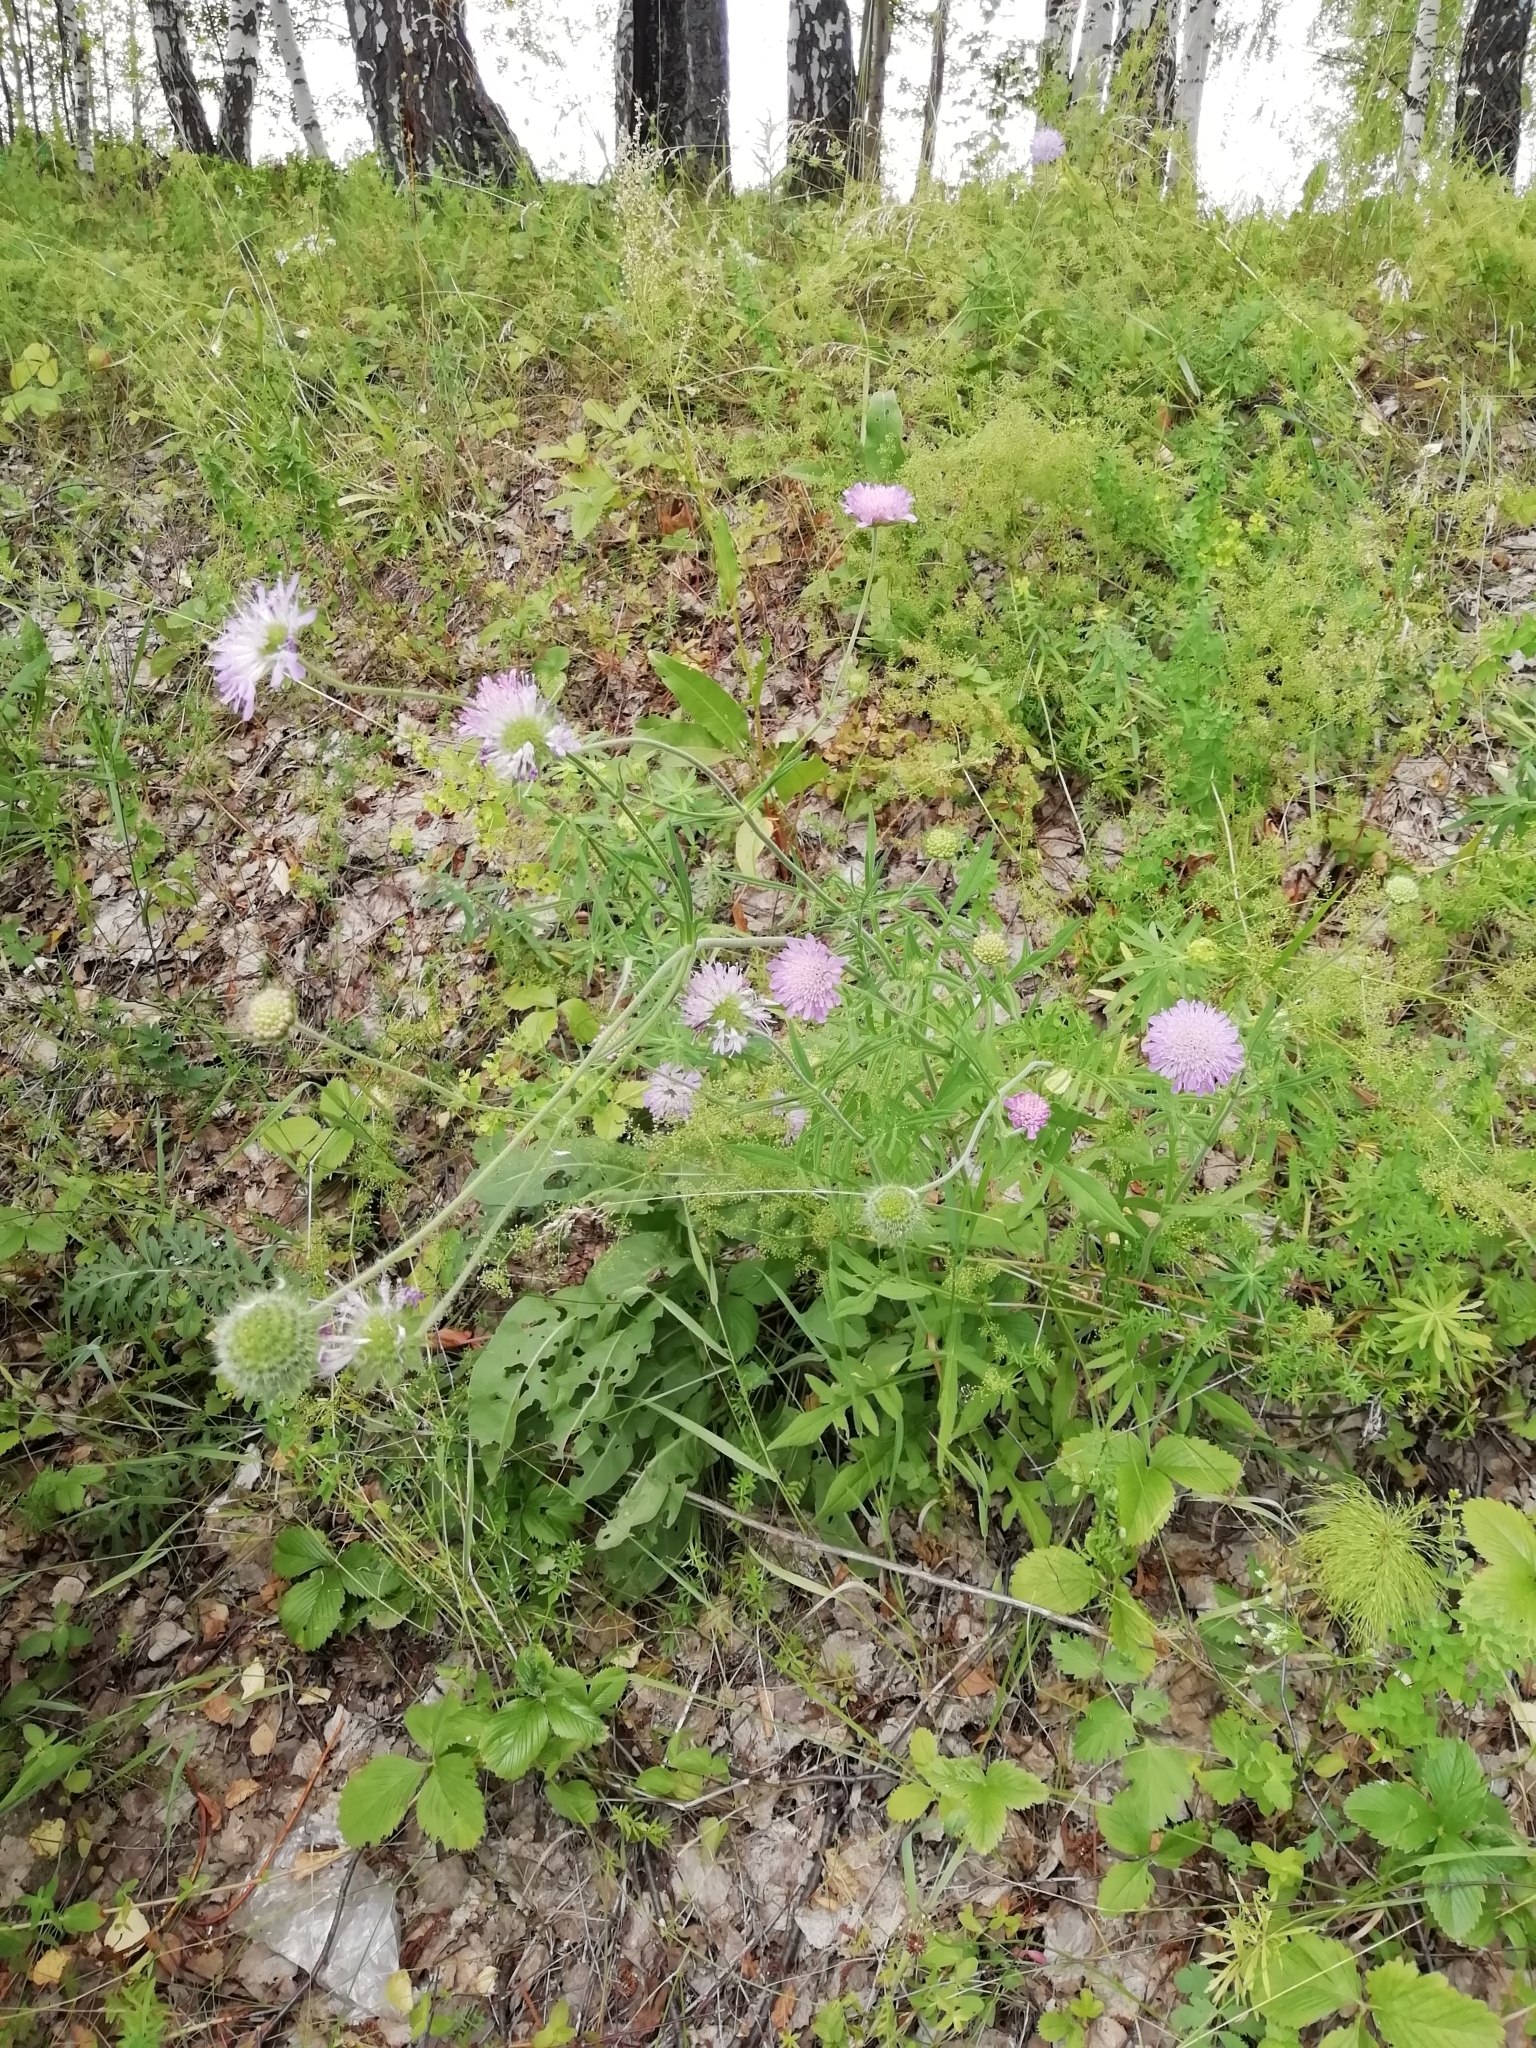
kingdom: Plantae
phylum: Tracheophyta
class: Magnoliopsida
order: Dipsacales
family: Caprifoliaceae
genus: Knautia
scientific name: Knautia arvensis
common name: Field scabiosa
